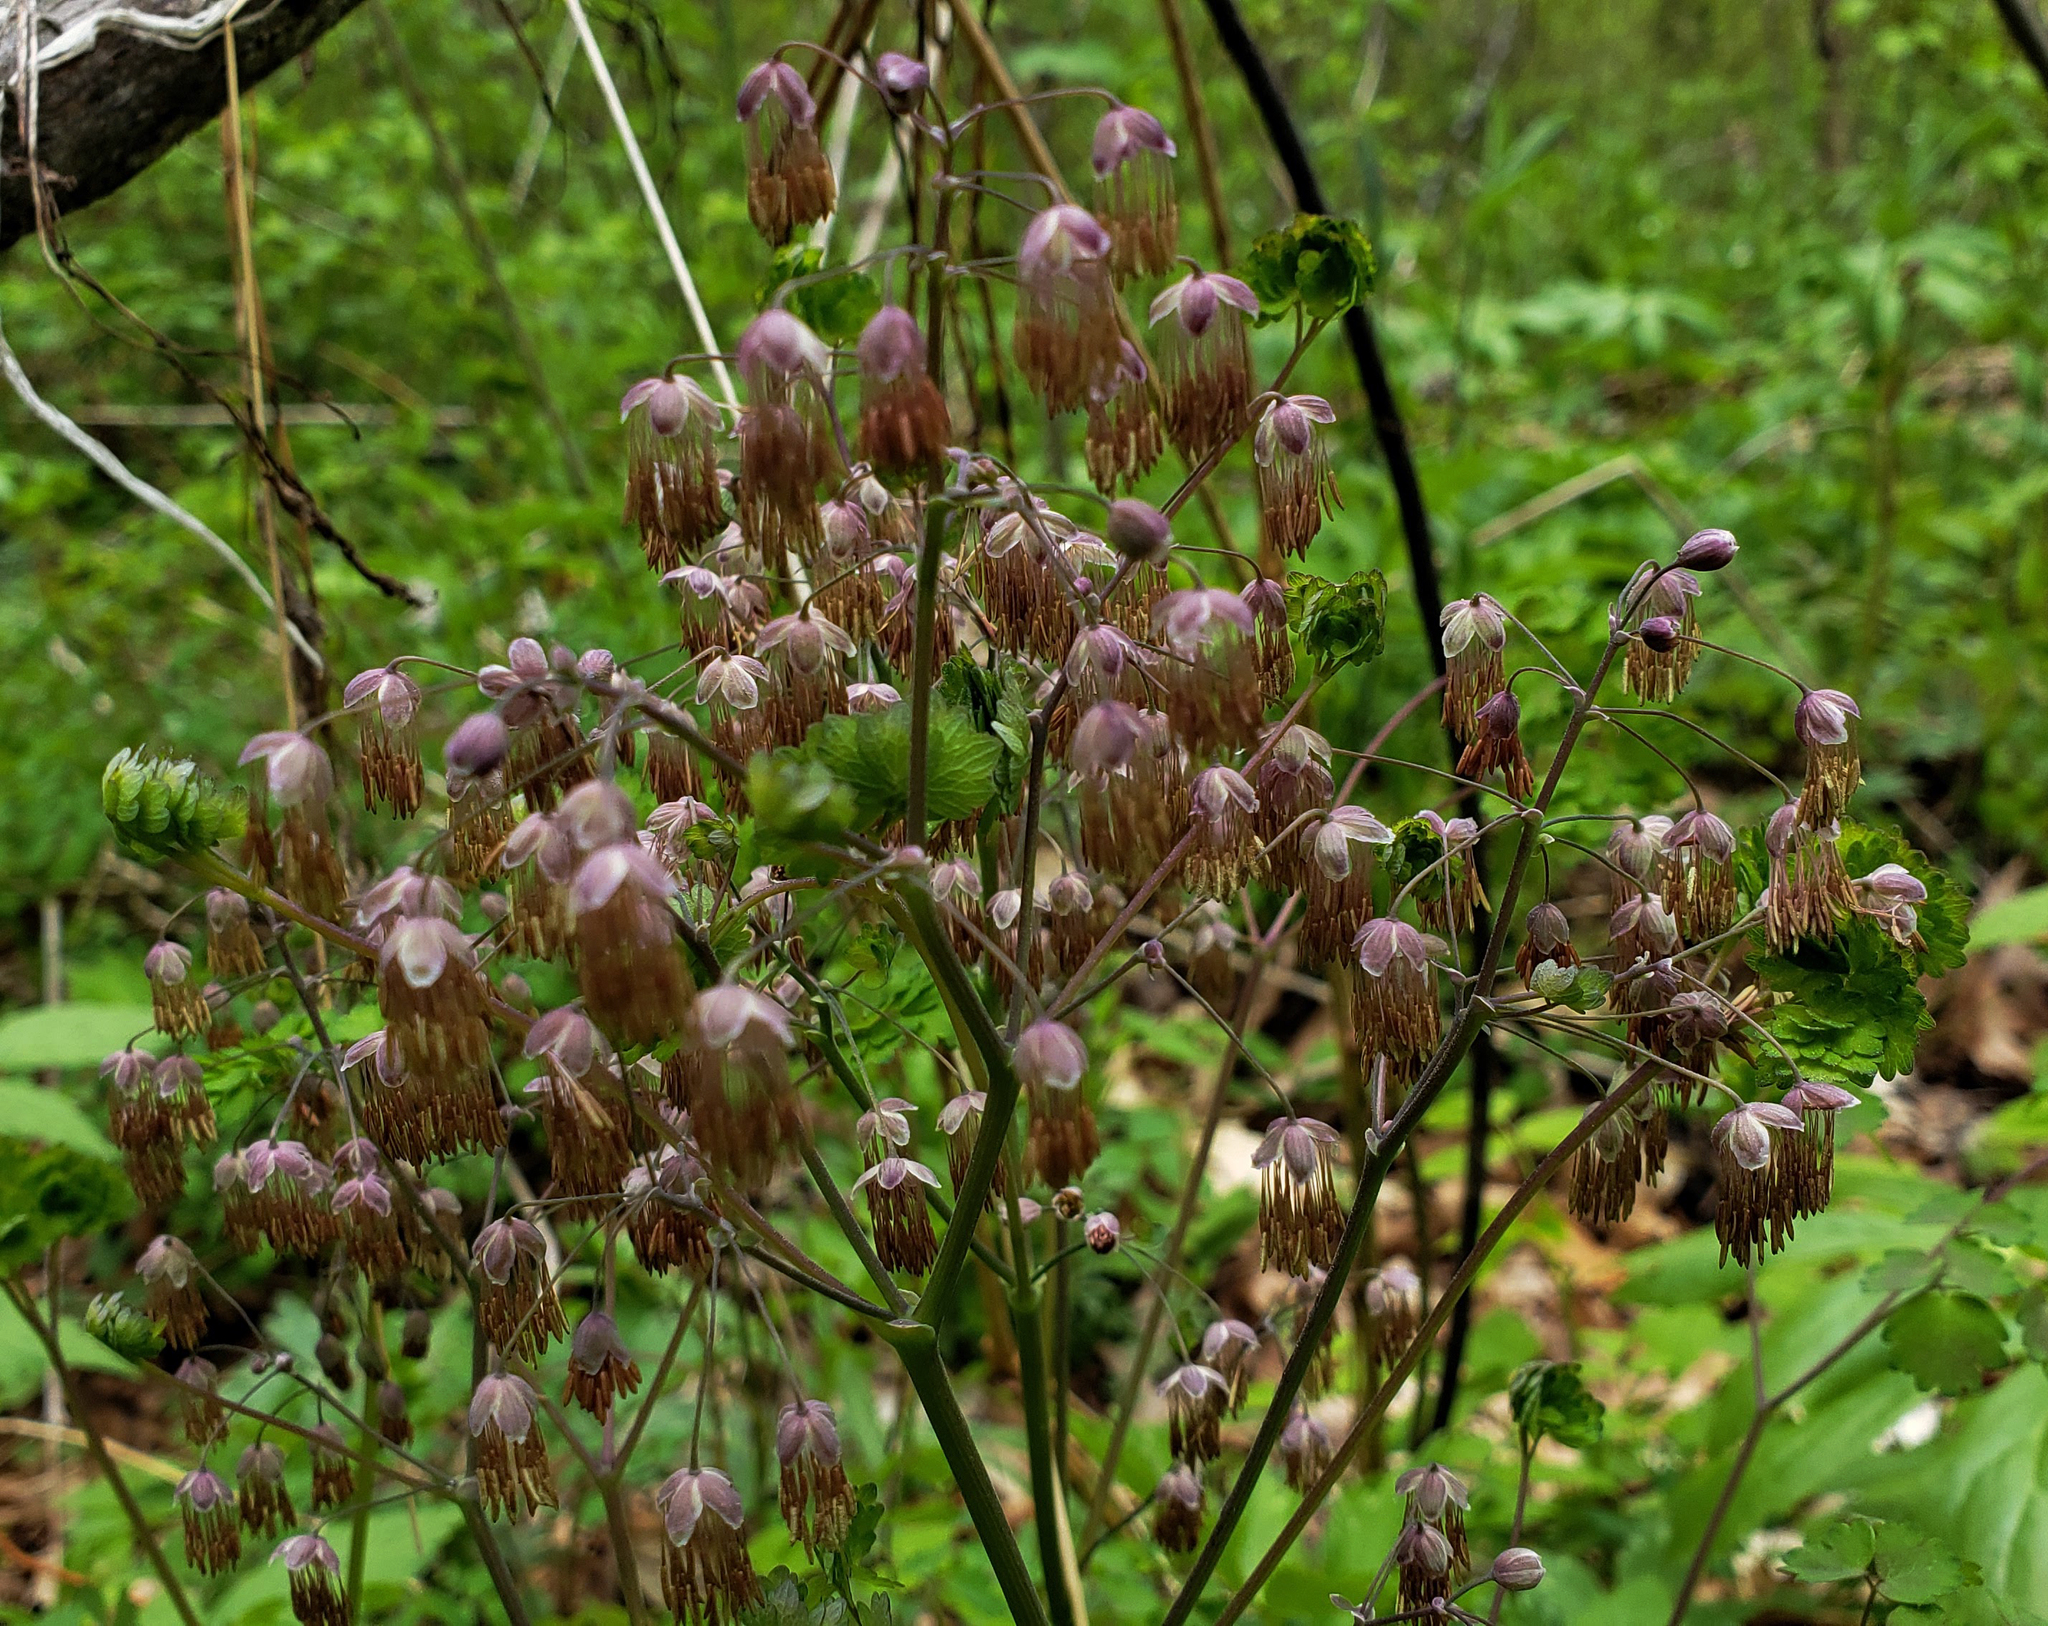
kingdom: Plantae
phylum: Tracheophyta
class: Magnoliopsida
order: Ranunculales
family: Ranunculaceae
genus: Thalictrum
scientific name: Thalictrum dioicum
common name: Early meadow-rue
